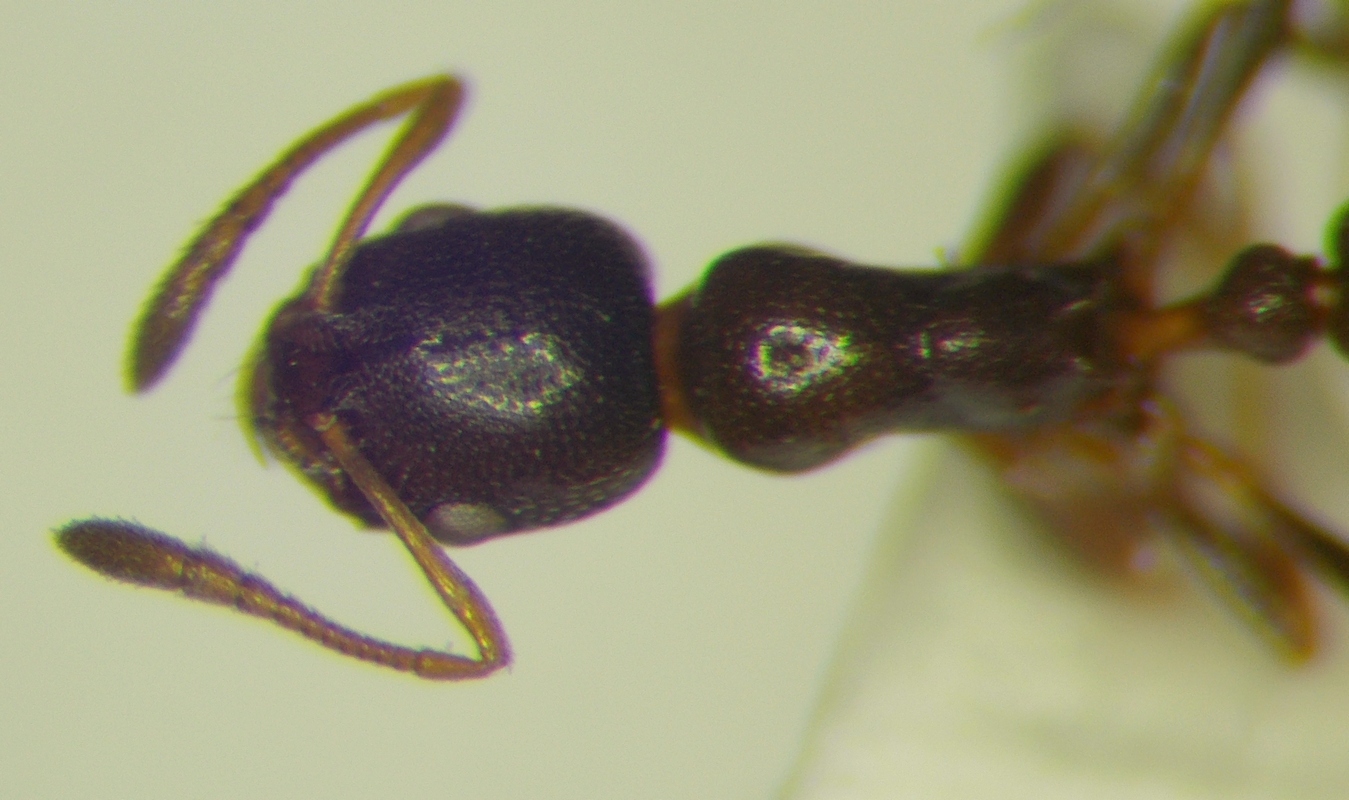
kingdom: Animalia
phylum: Arthropoda
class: Insecta
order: Hymenoptera
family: Formicidae
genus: Cardiocondyla
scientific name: Cardiocondyla sahlbergi
